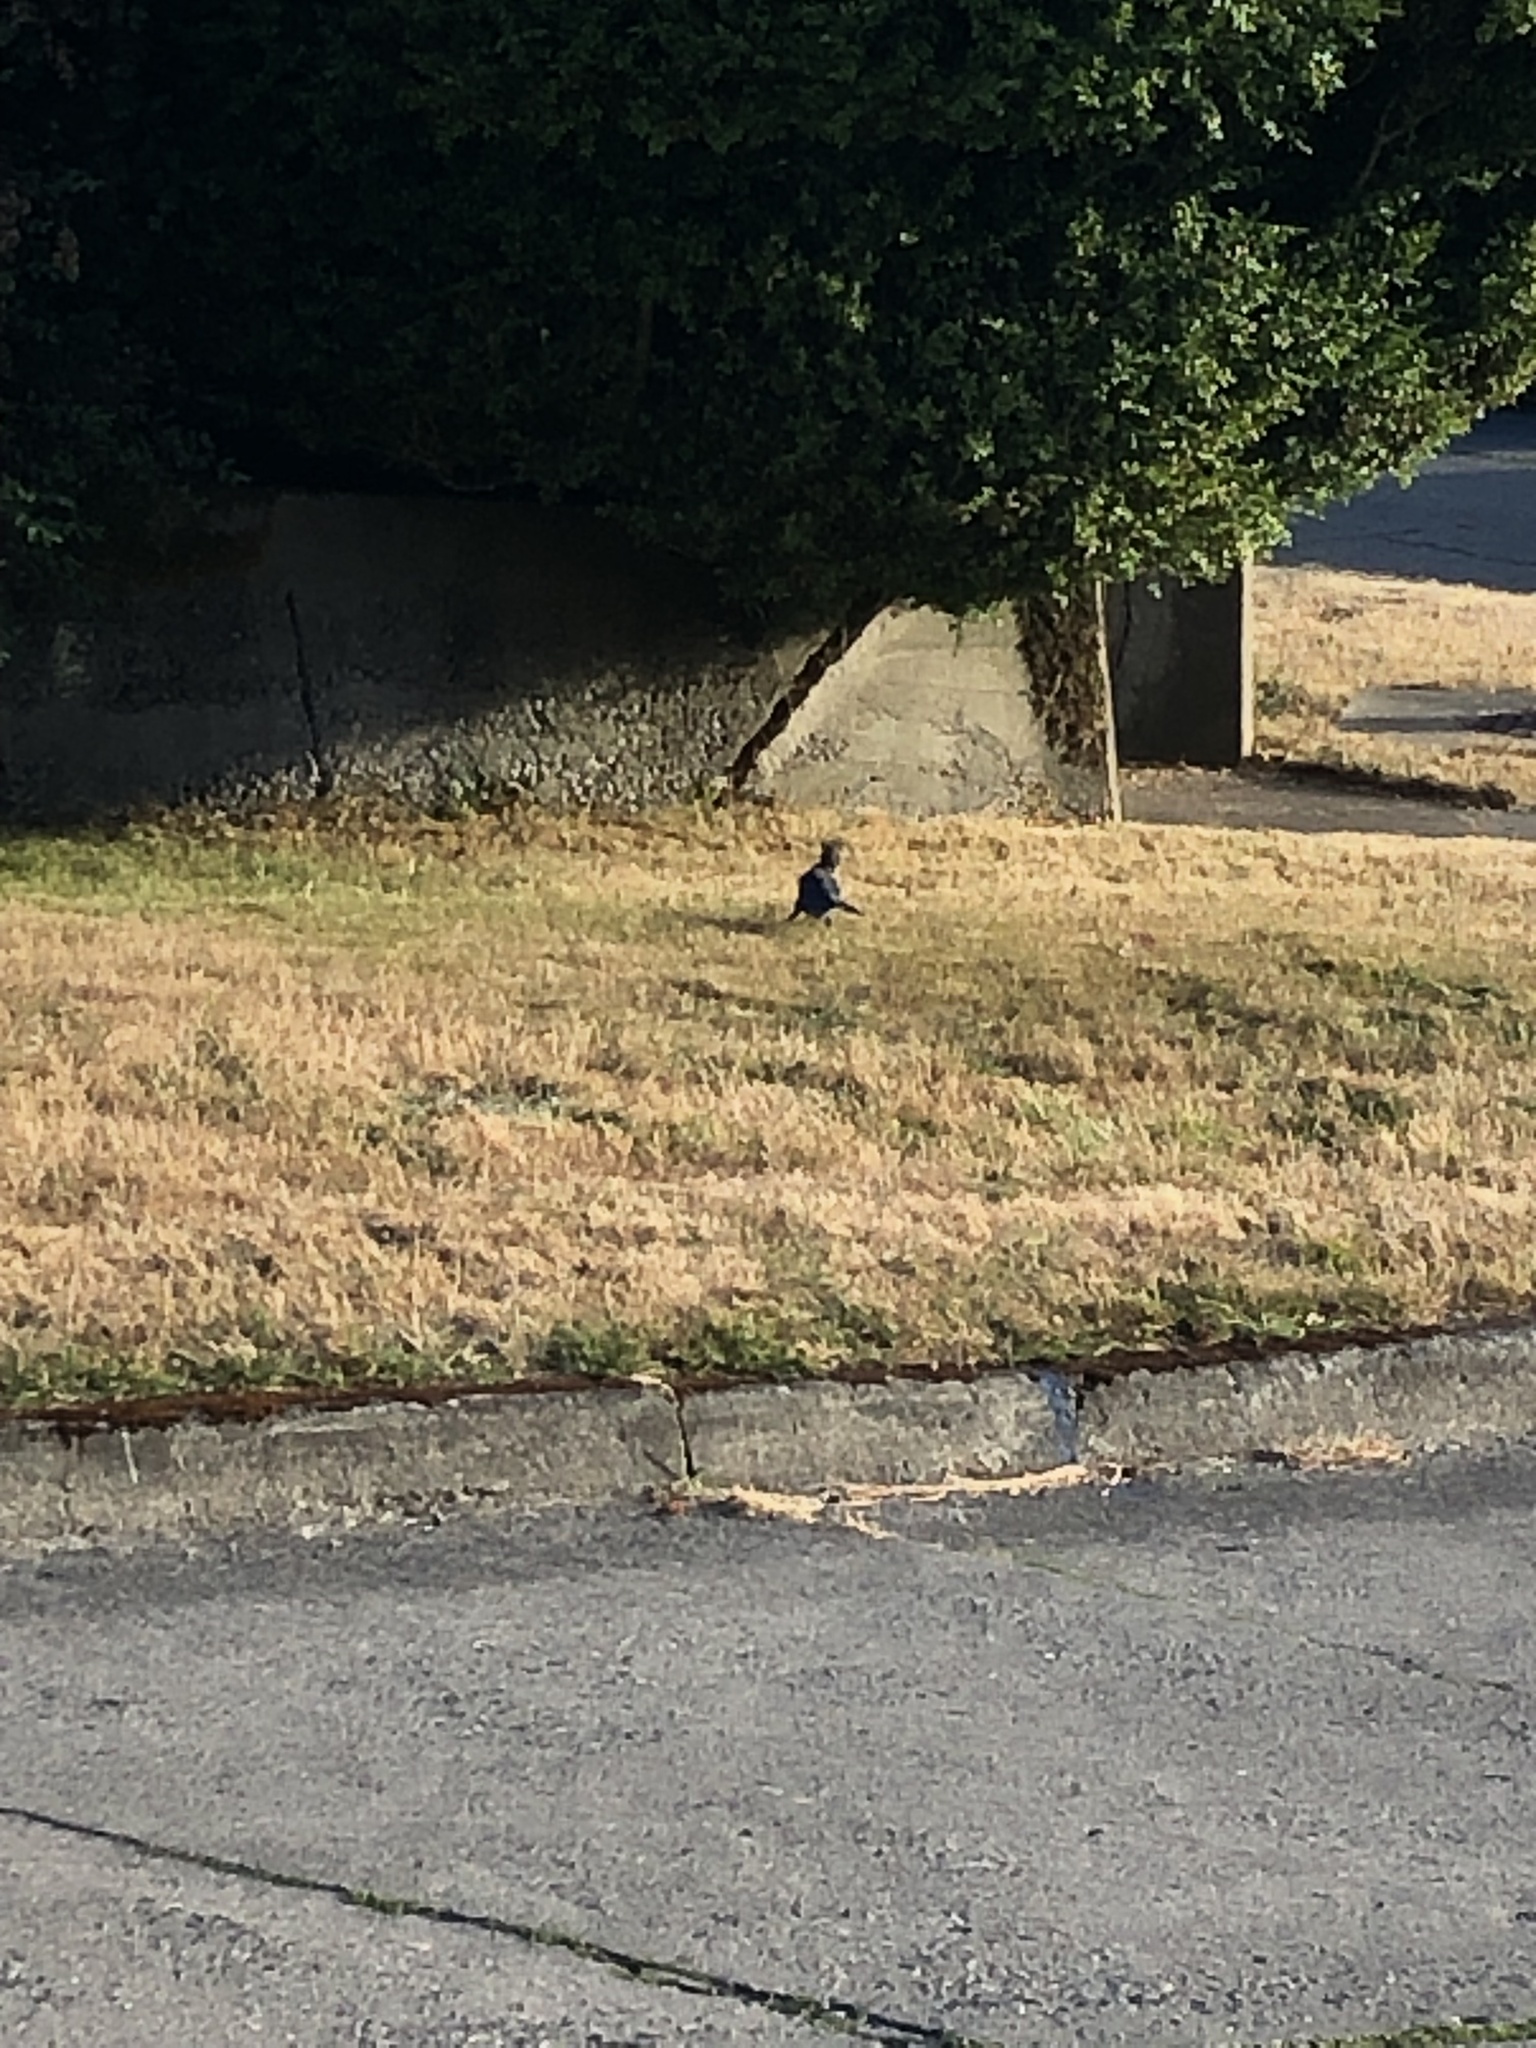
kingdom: Animalia
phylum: Chordata
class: Aves
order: Passeriformes
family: Corvidae
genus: Cyanocitta
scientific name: Cyanocitta stelleri
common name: Steller's jay
